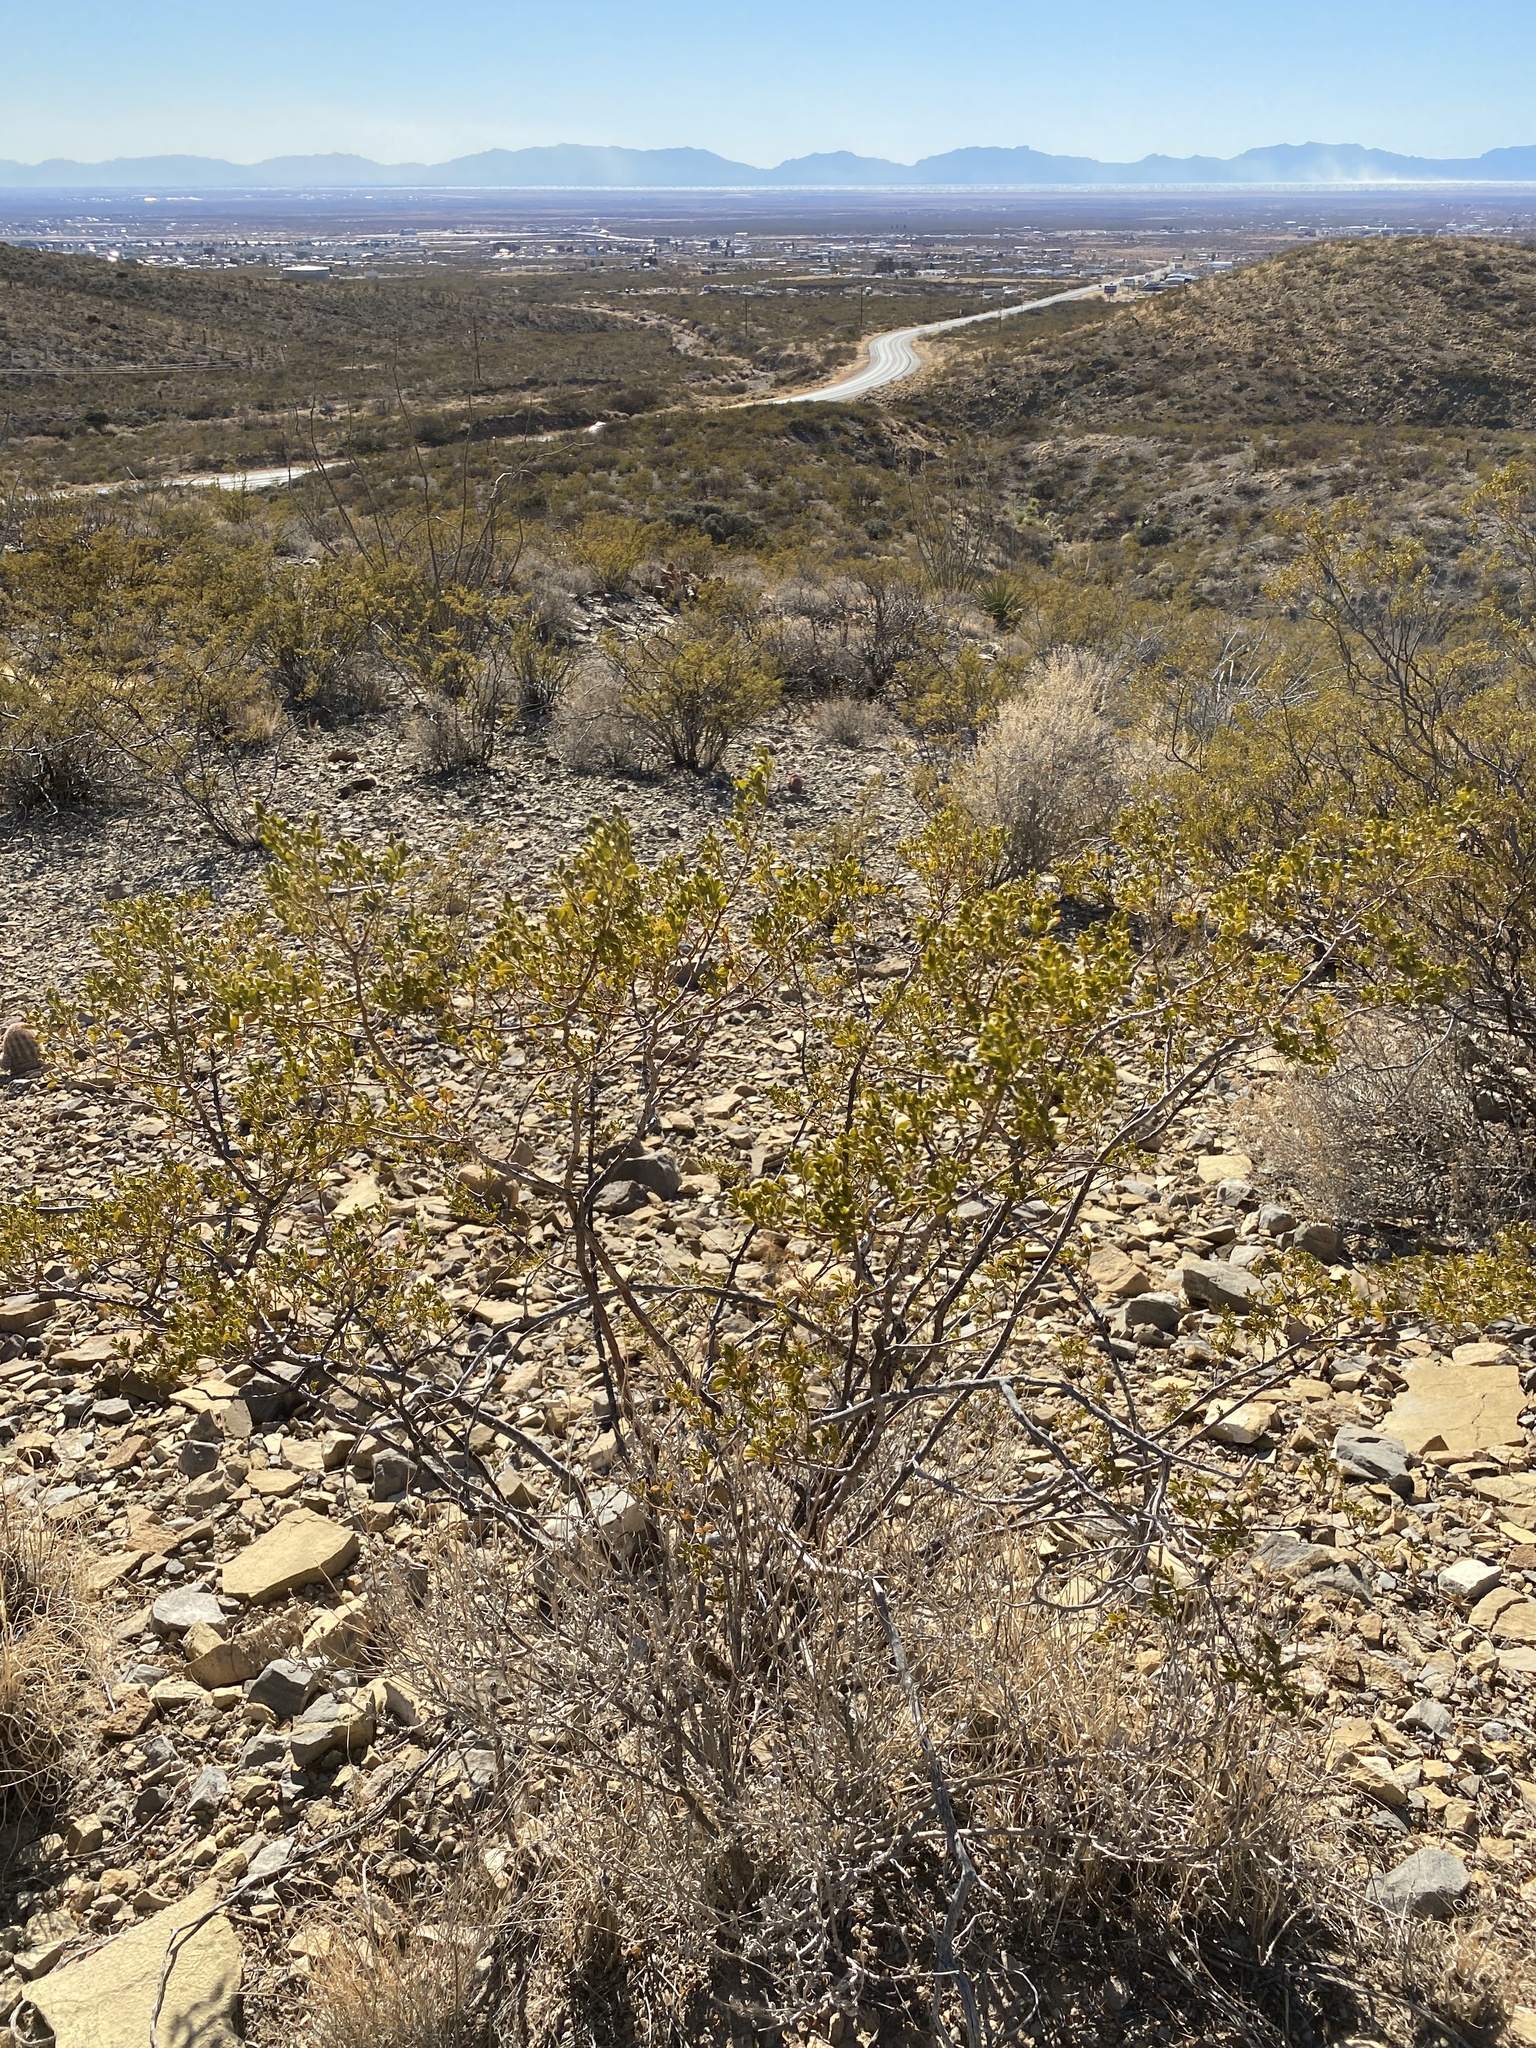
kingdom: Plantae
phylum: Tracheophyta
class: Magnoliopsida
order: Zygophyllales
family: Zygophyllaceae
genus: Larrea
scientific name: Larrea tridentata
